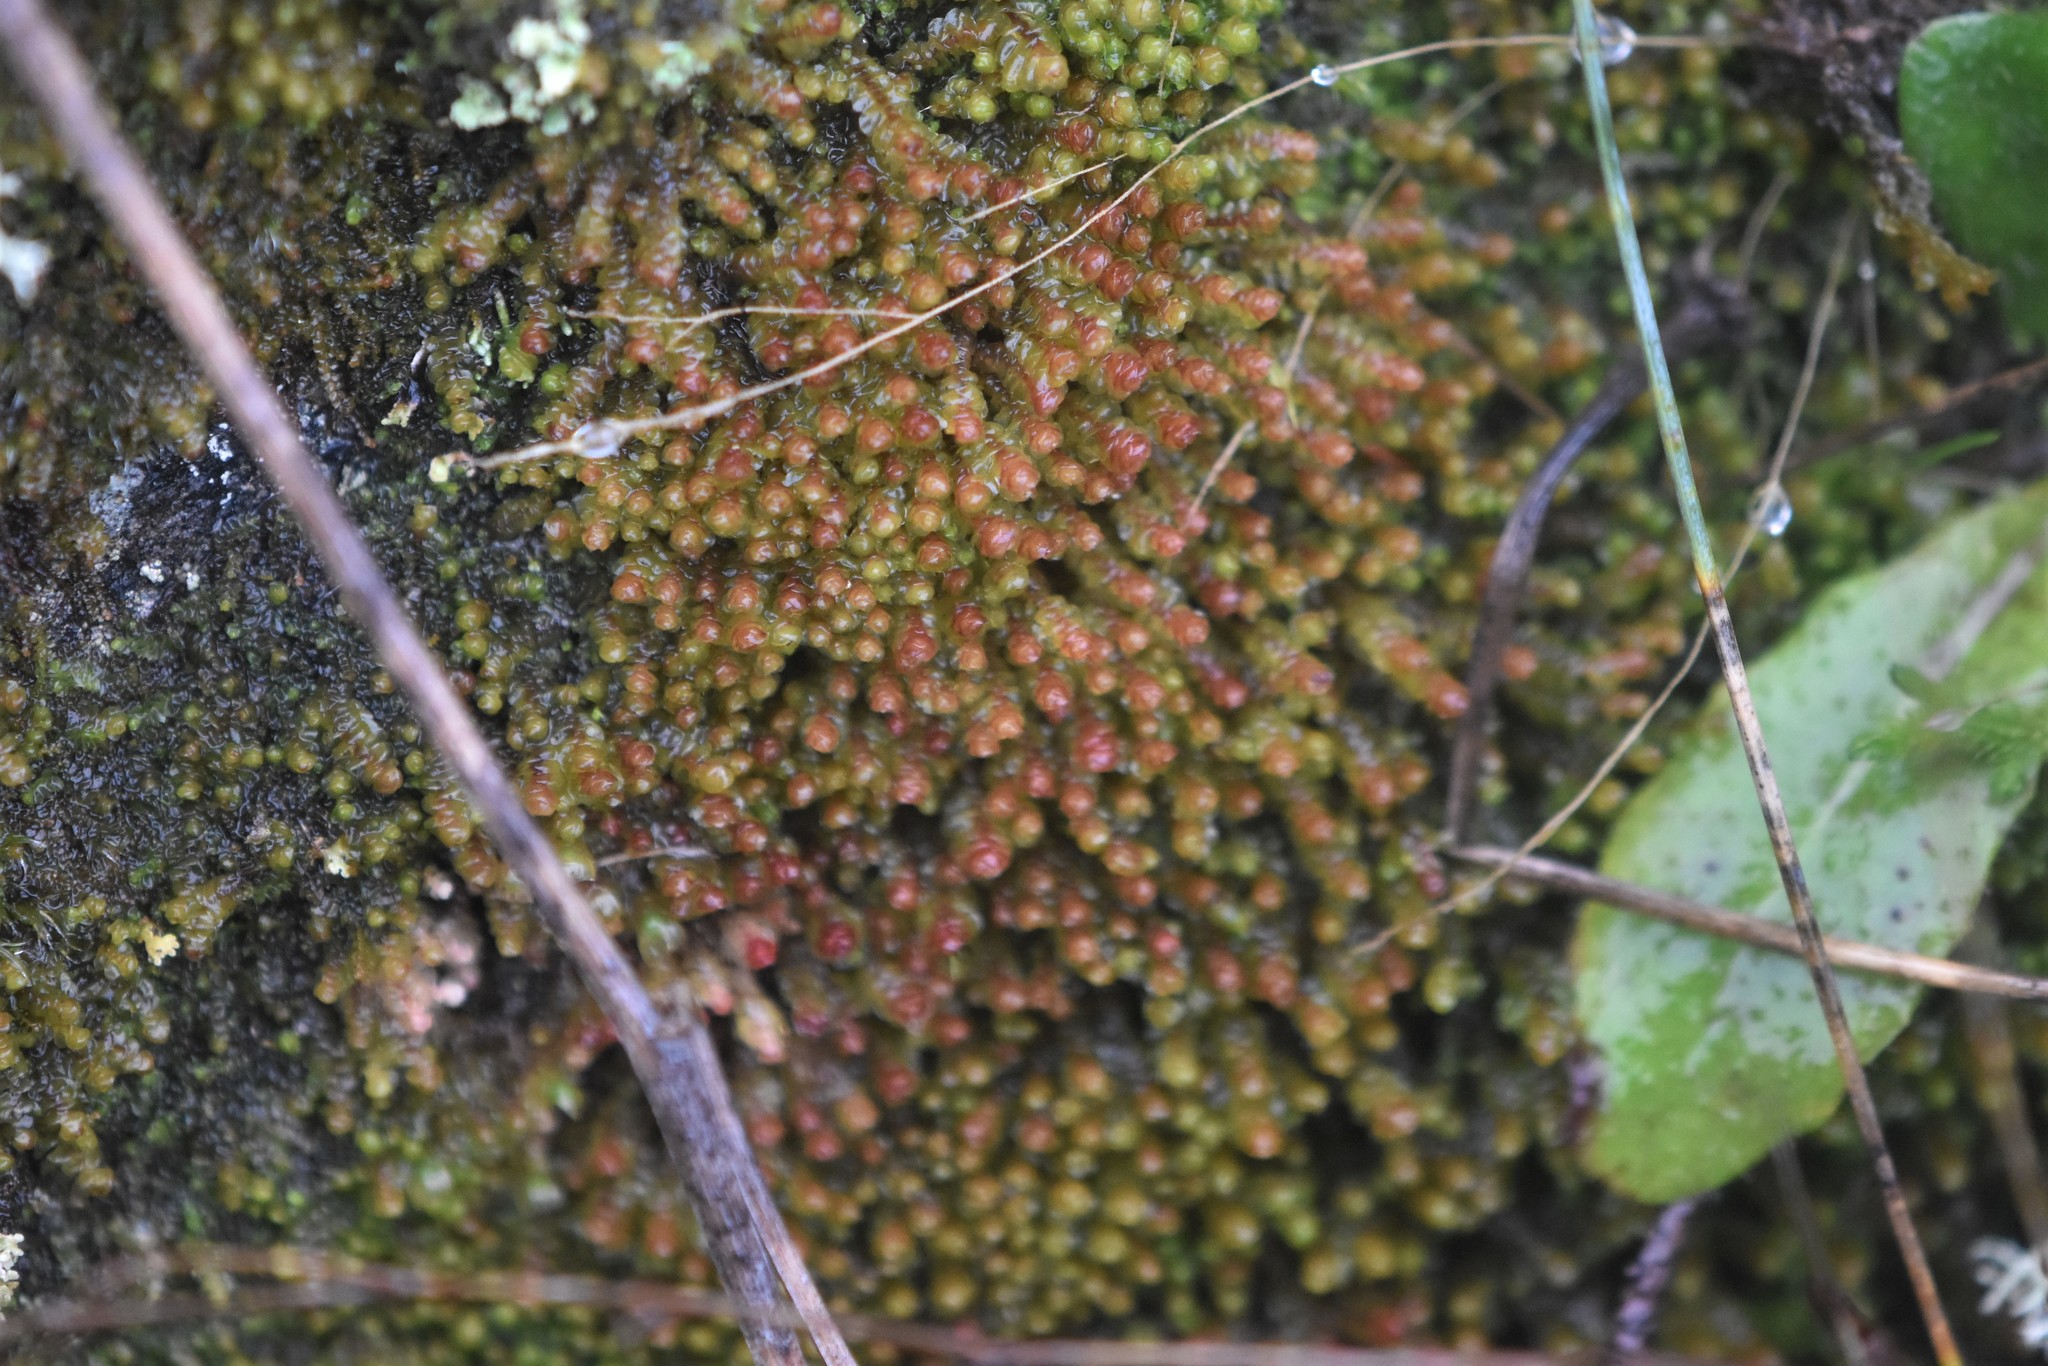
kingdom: Plantae
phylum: Marchantiophyta
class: Jungermanniopsida
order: Jungermanniales
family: Scapaniaceae
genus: Scapania
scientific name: Scapania americana
